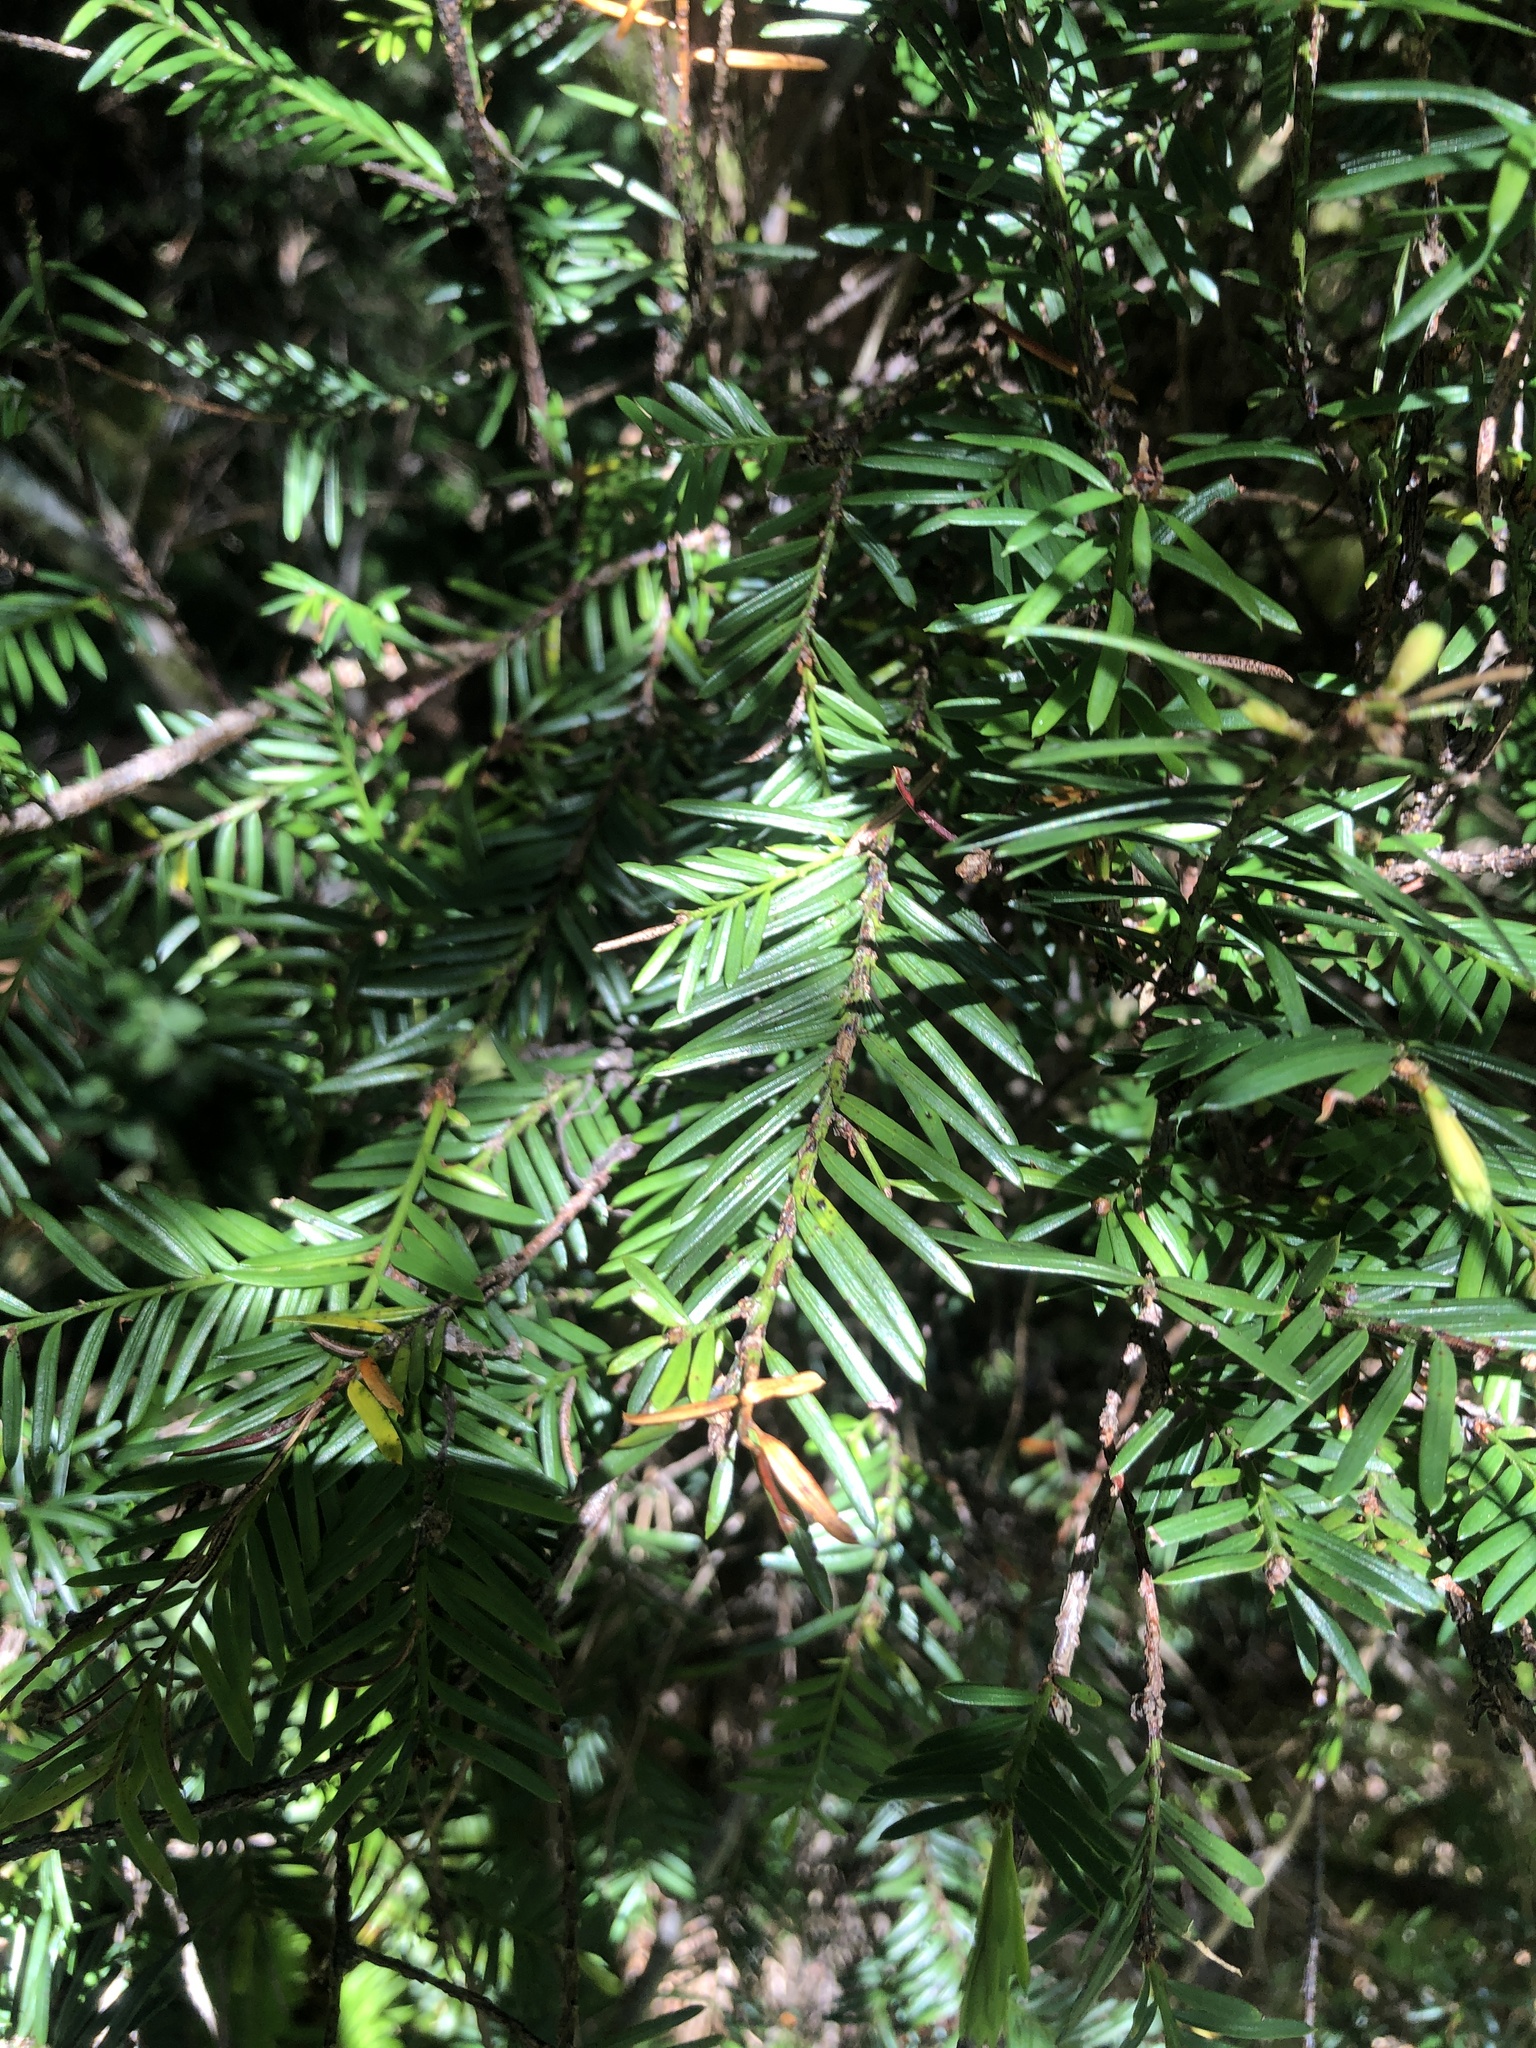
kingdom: Plantae
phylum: Tracheophyta
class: Pinopsida
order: Pinales
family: Taxaceae
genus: Taxus
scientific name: Taxus brevifolia
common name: Pacific yew
